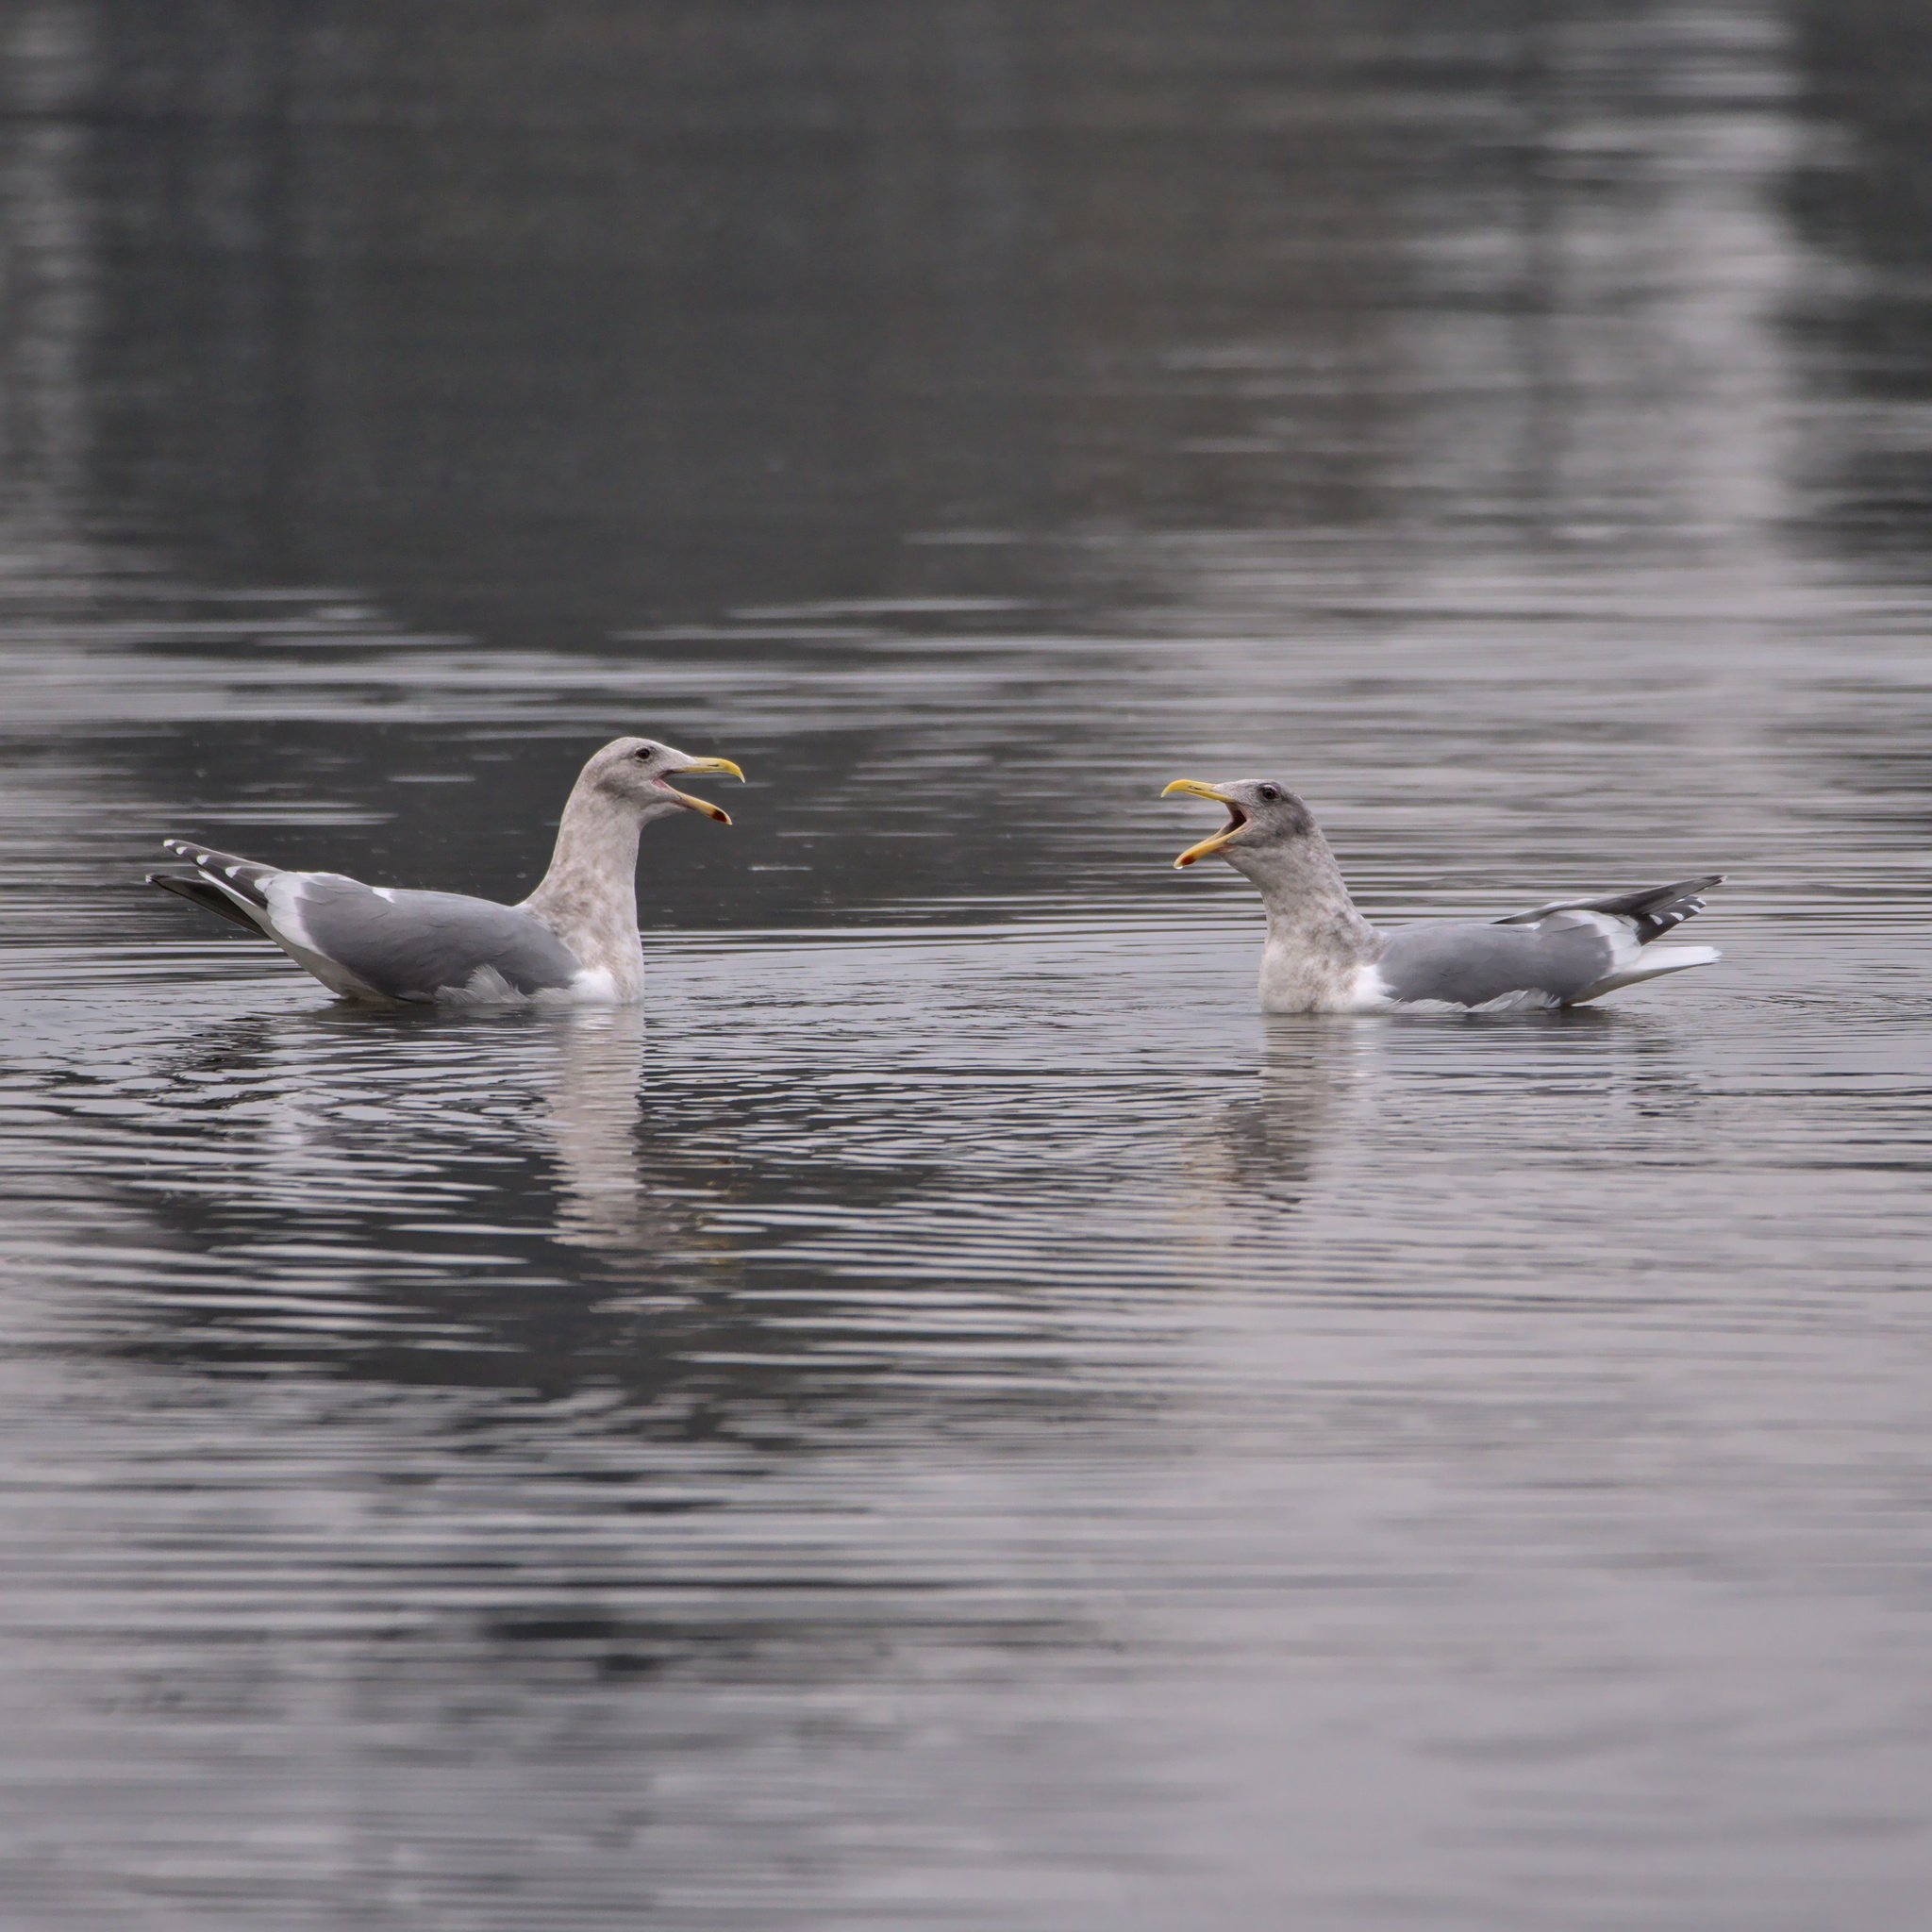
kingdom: Animalia
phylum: Chordata
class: Aves
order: Charadriiformes
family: Laridae
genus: Larus
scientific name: Larus
